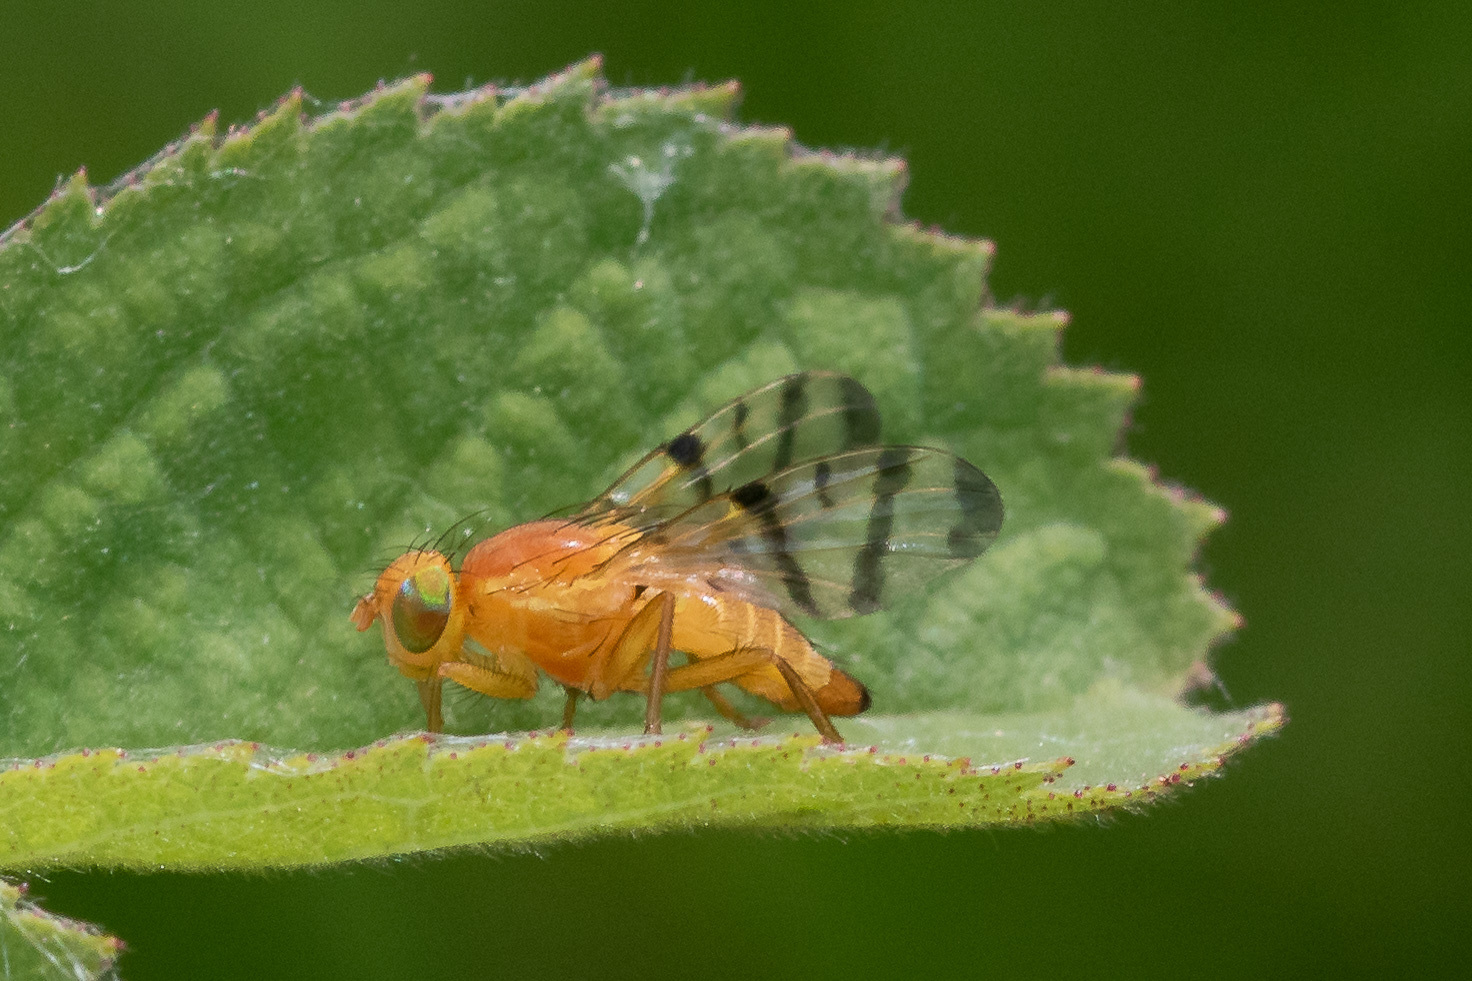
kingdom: Animalia
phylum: Arthropoda
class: Insecta
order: Diptera
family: Tephritidae
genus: Rhagoletis
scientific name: Rhagoletis alternata
